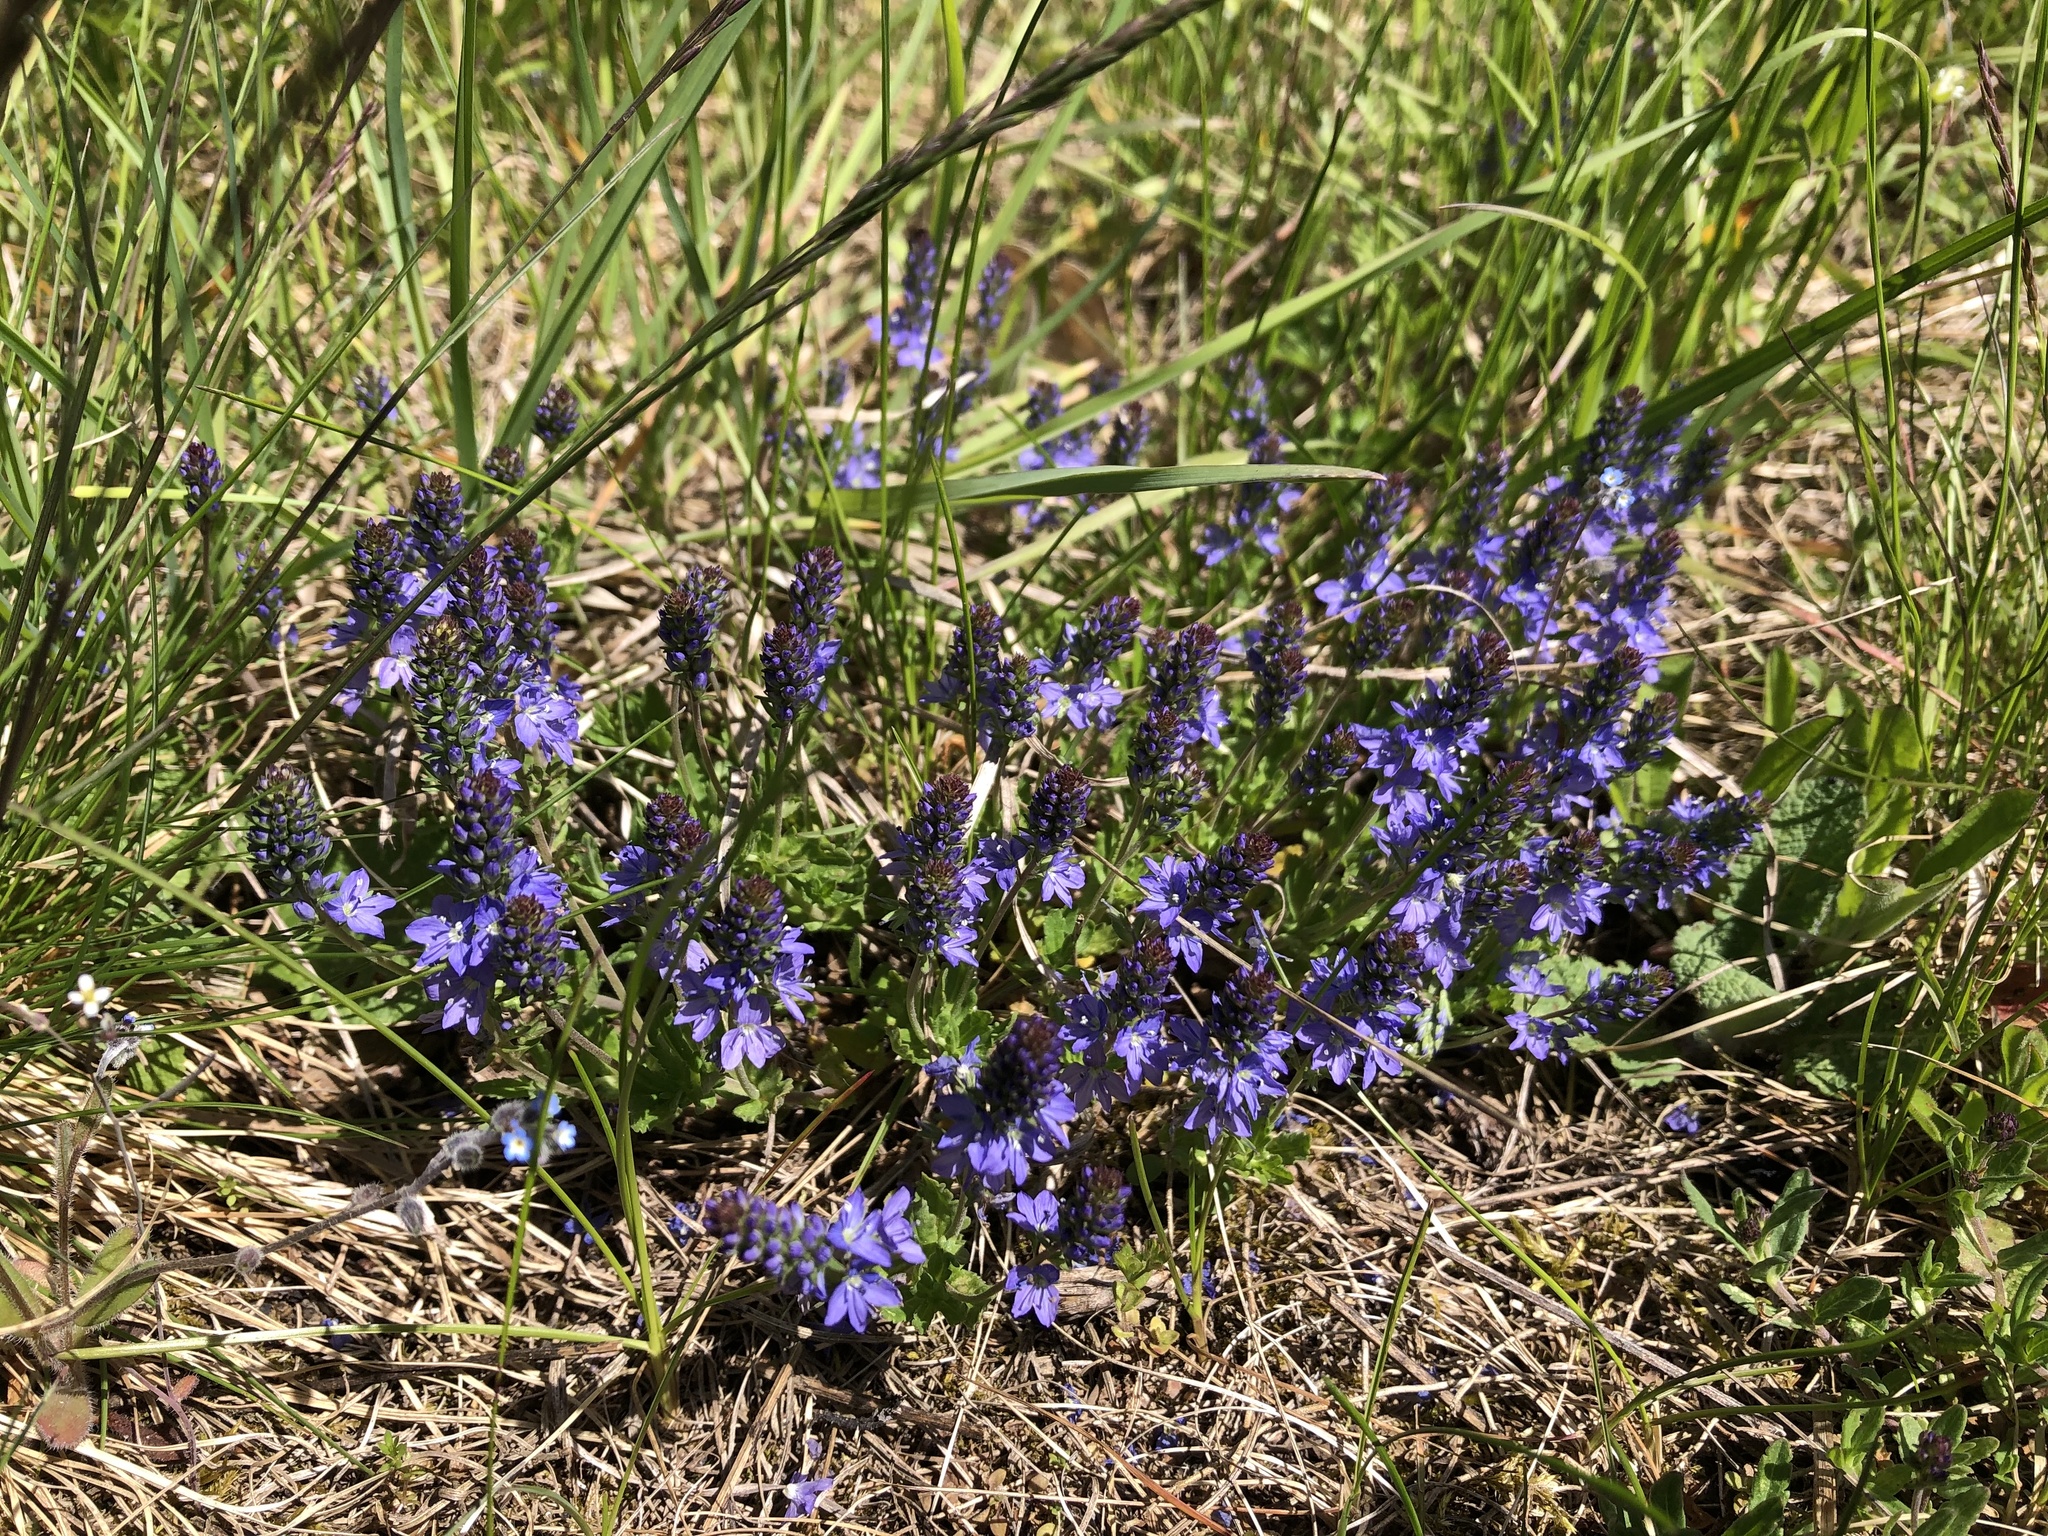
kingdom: Plantae
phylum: Tracheophyta
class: Magnoliopsida
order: Lamiales
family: Plantaginaceae
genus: Veronica
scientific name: Veronica prostrata
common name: Prostrate speedwell
